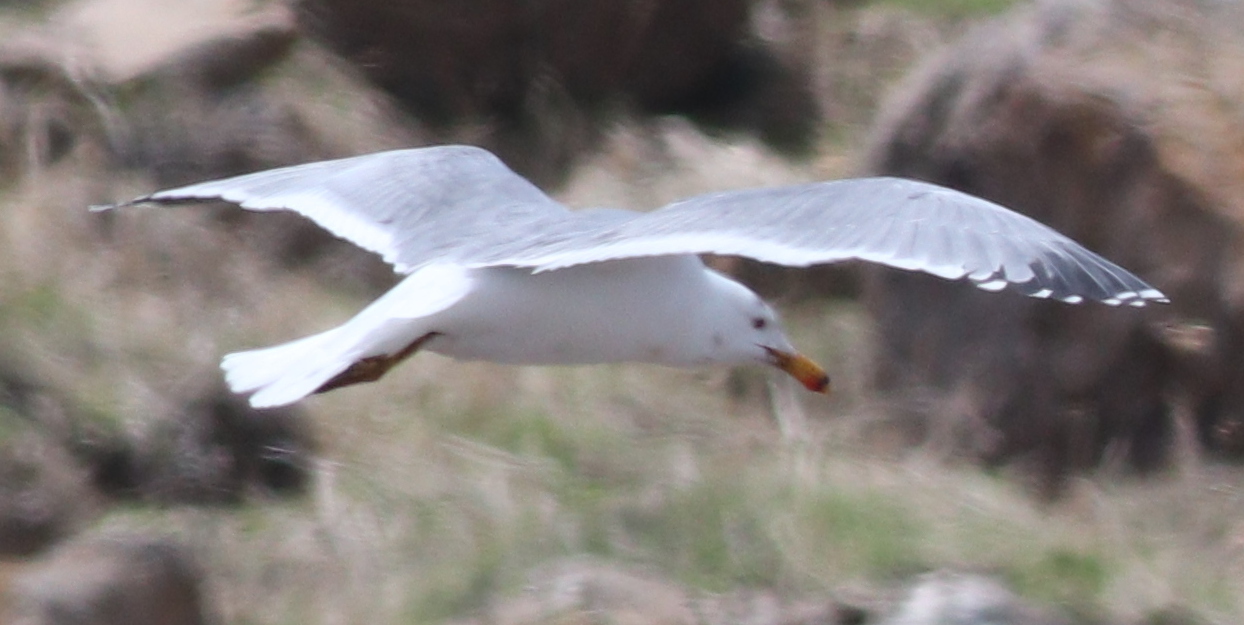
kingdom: Animalia
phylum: Chordata
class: Aves
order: Charadriiformes
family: Laridae
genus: Larus
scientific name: Larus armenicus
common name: Armenian gull
